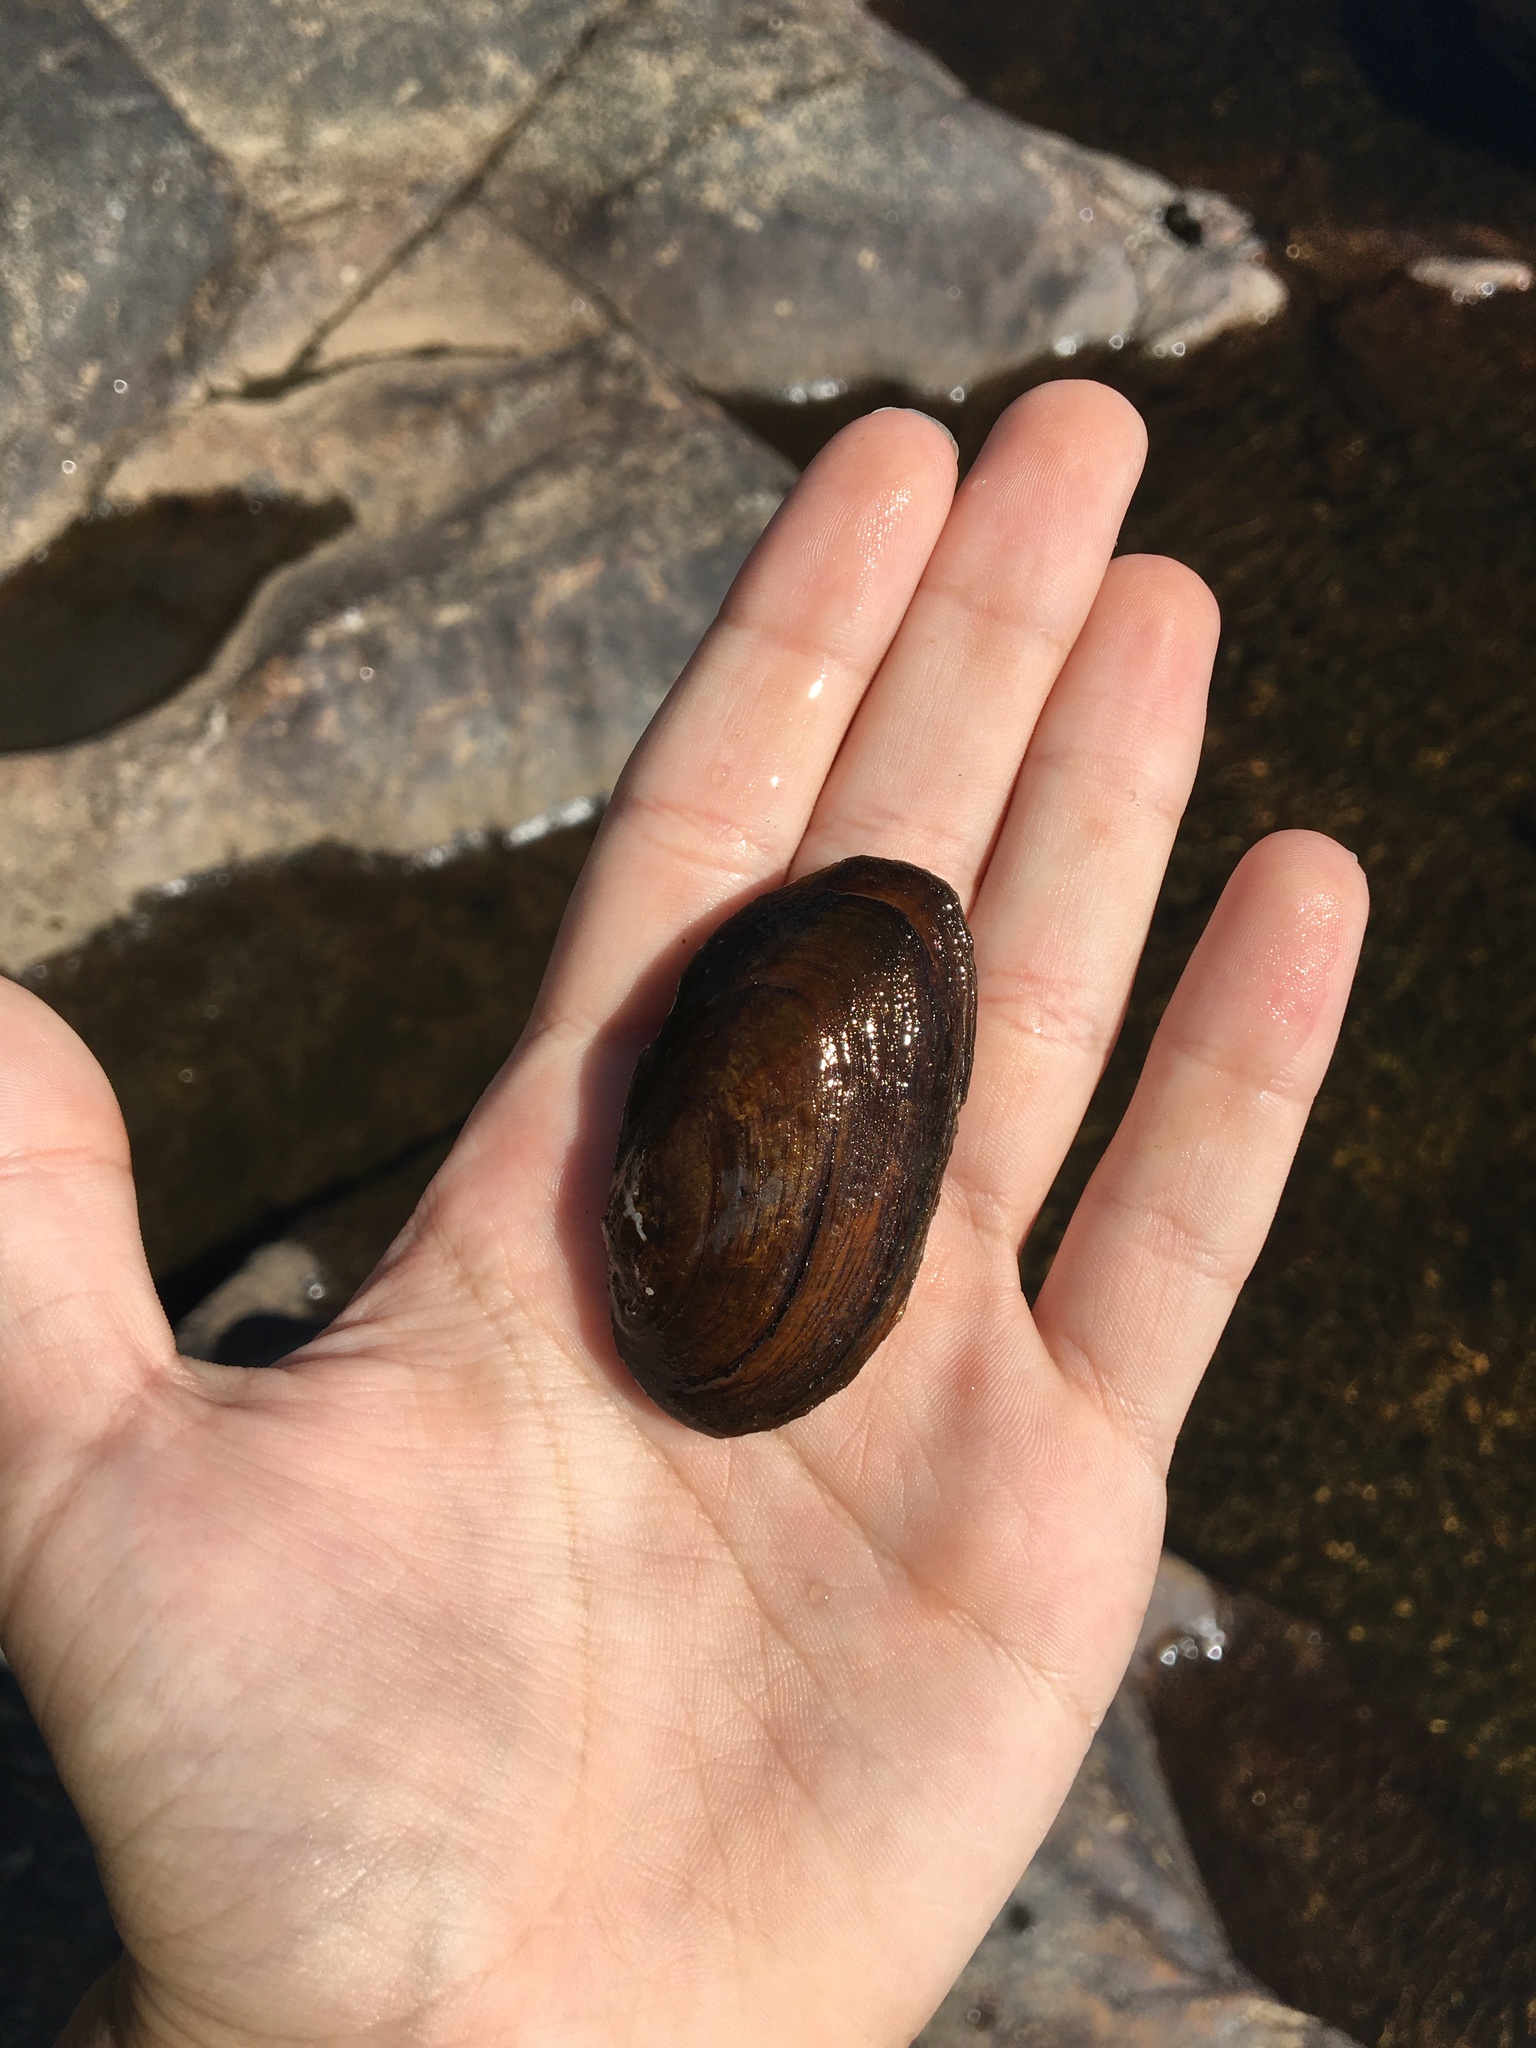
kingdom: Animalia
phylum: Mollusca
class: Bivalvia
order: Unionida
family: Unionidae
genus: Elliptio
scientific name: Elliptio complanata
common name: Eastern elliptio
